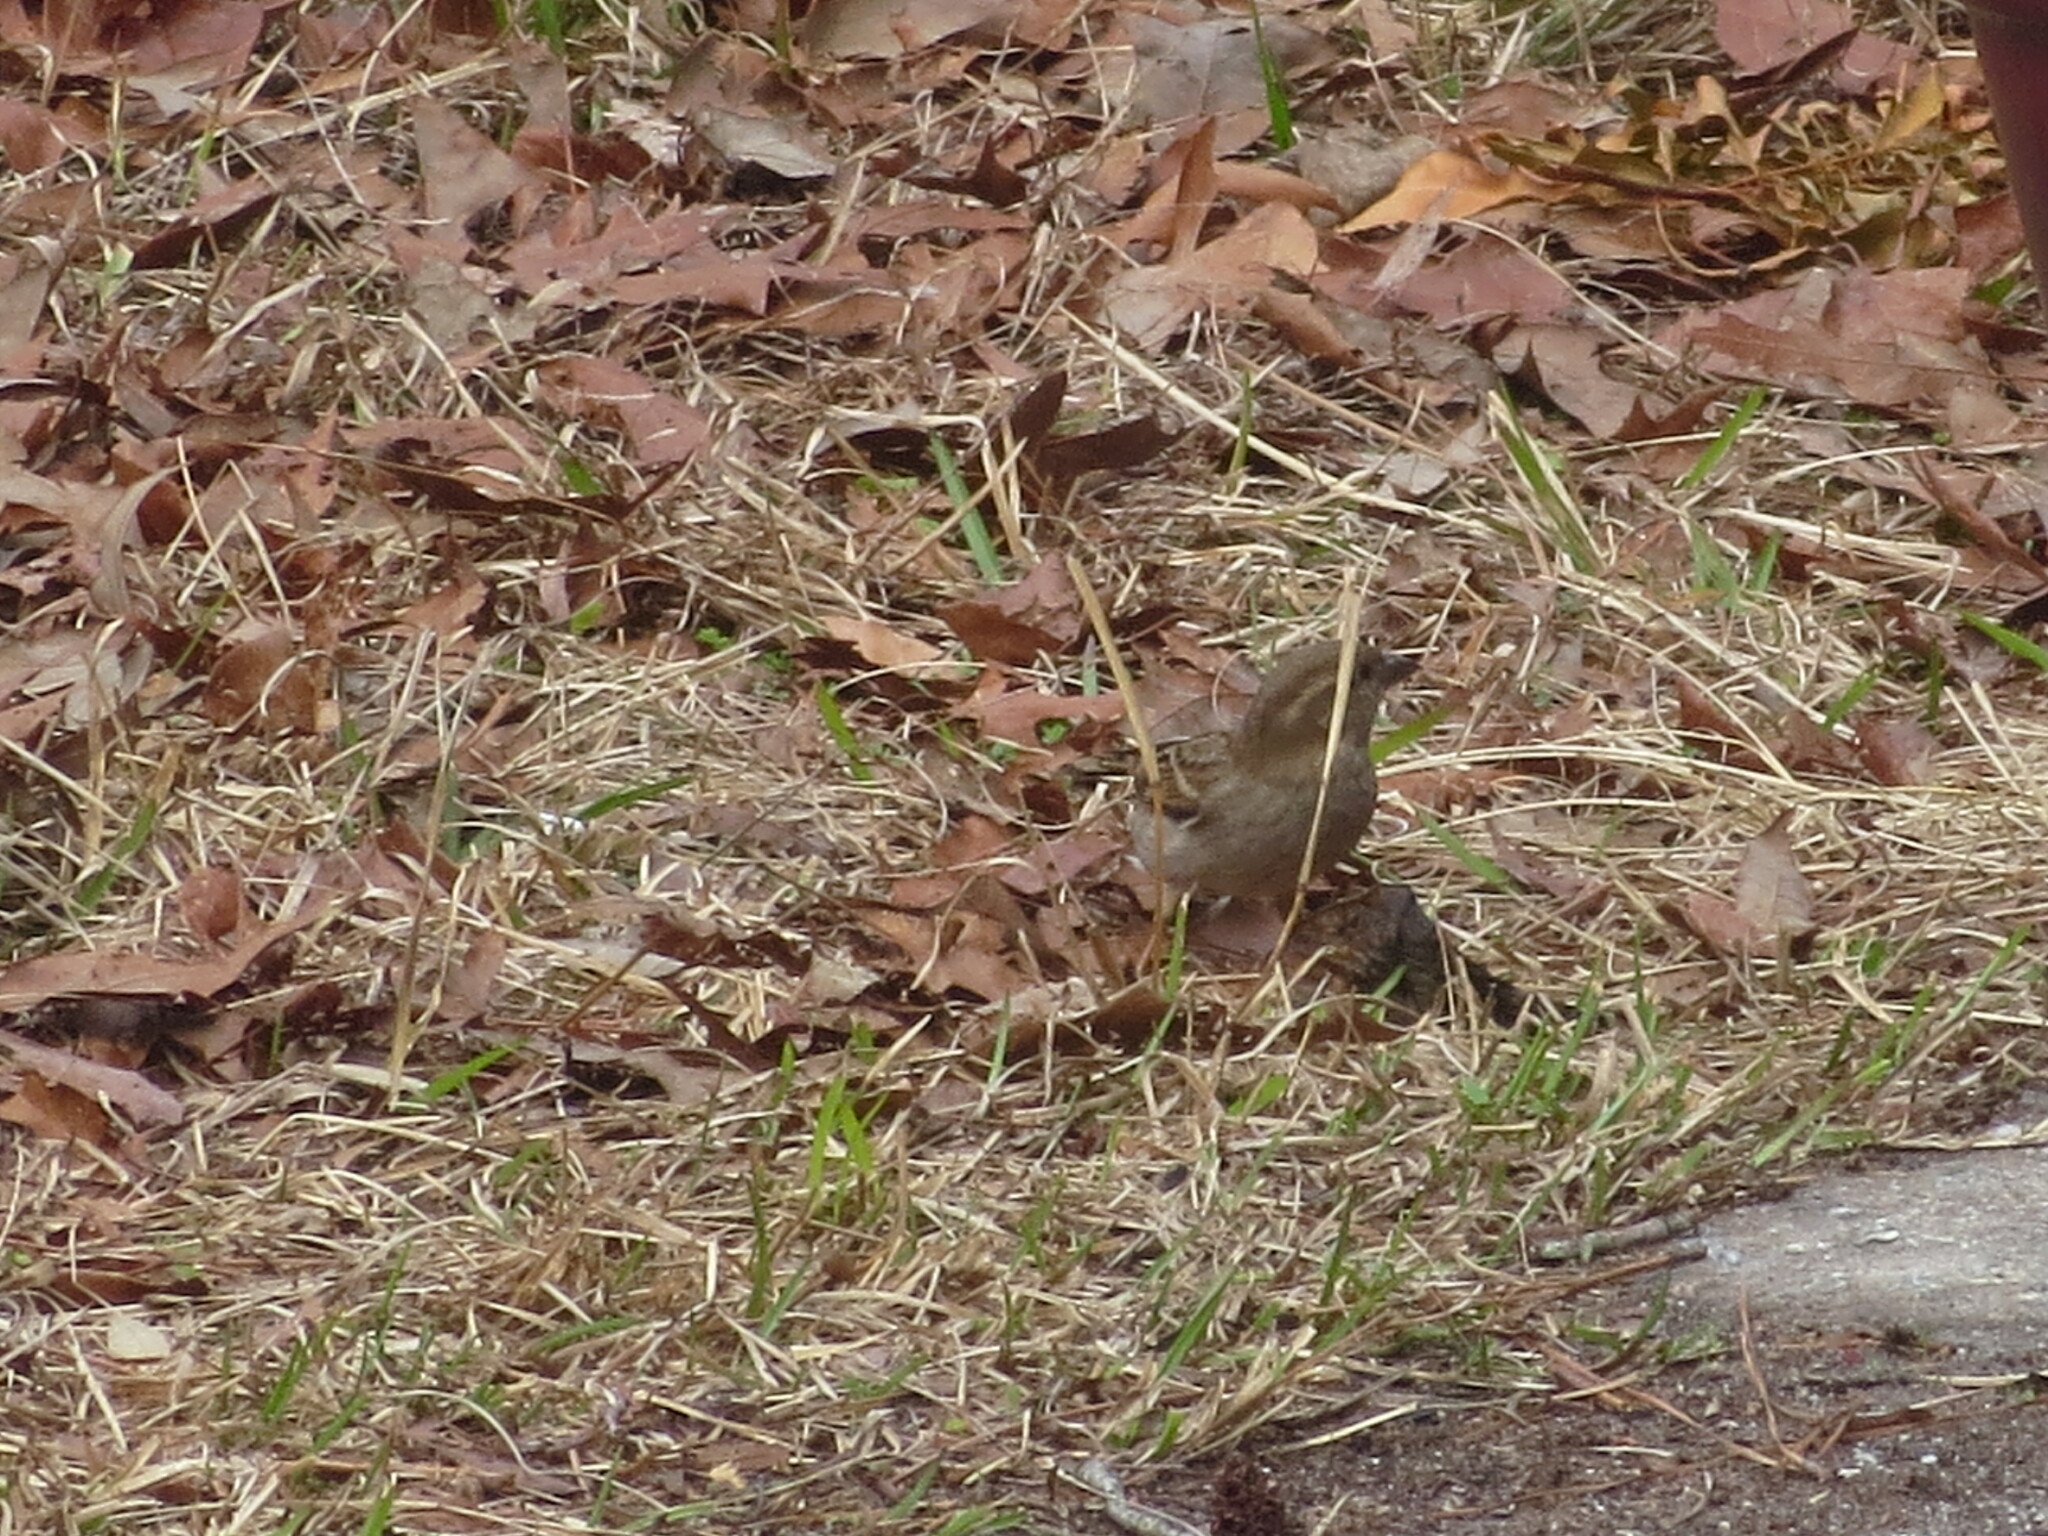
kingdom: Animalia
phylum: Chordata
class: Aves
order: Passeriformes
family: Passeridae
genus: Passer
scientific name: Passer domesticus
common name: House sparrow
